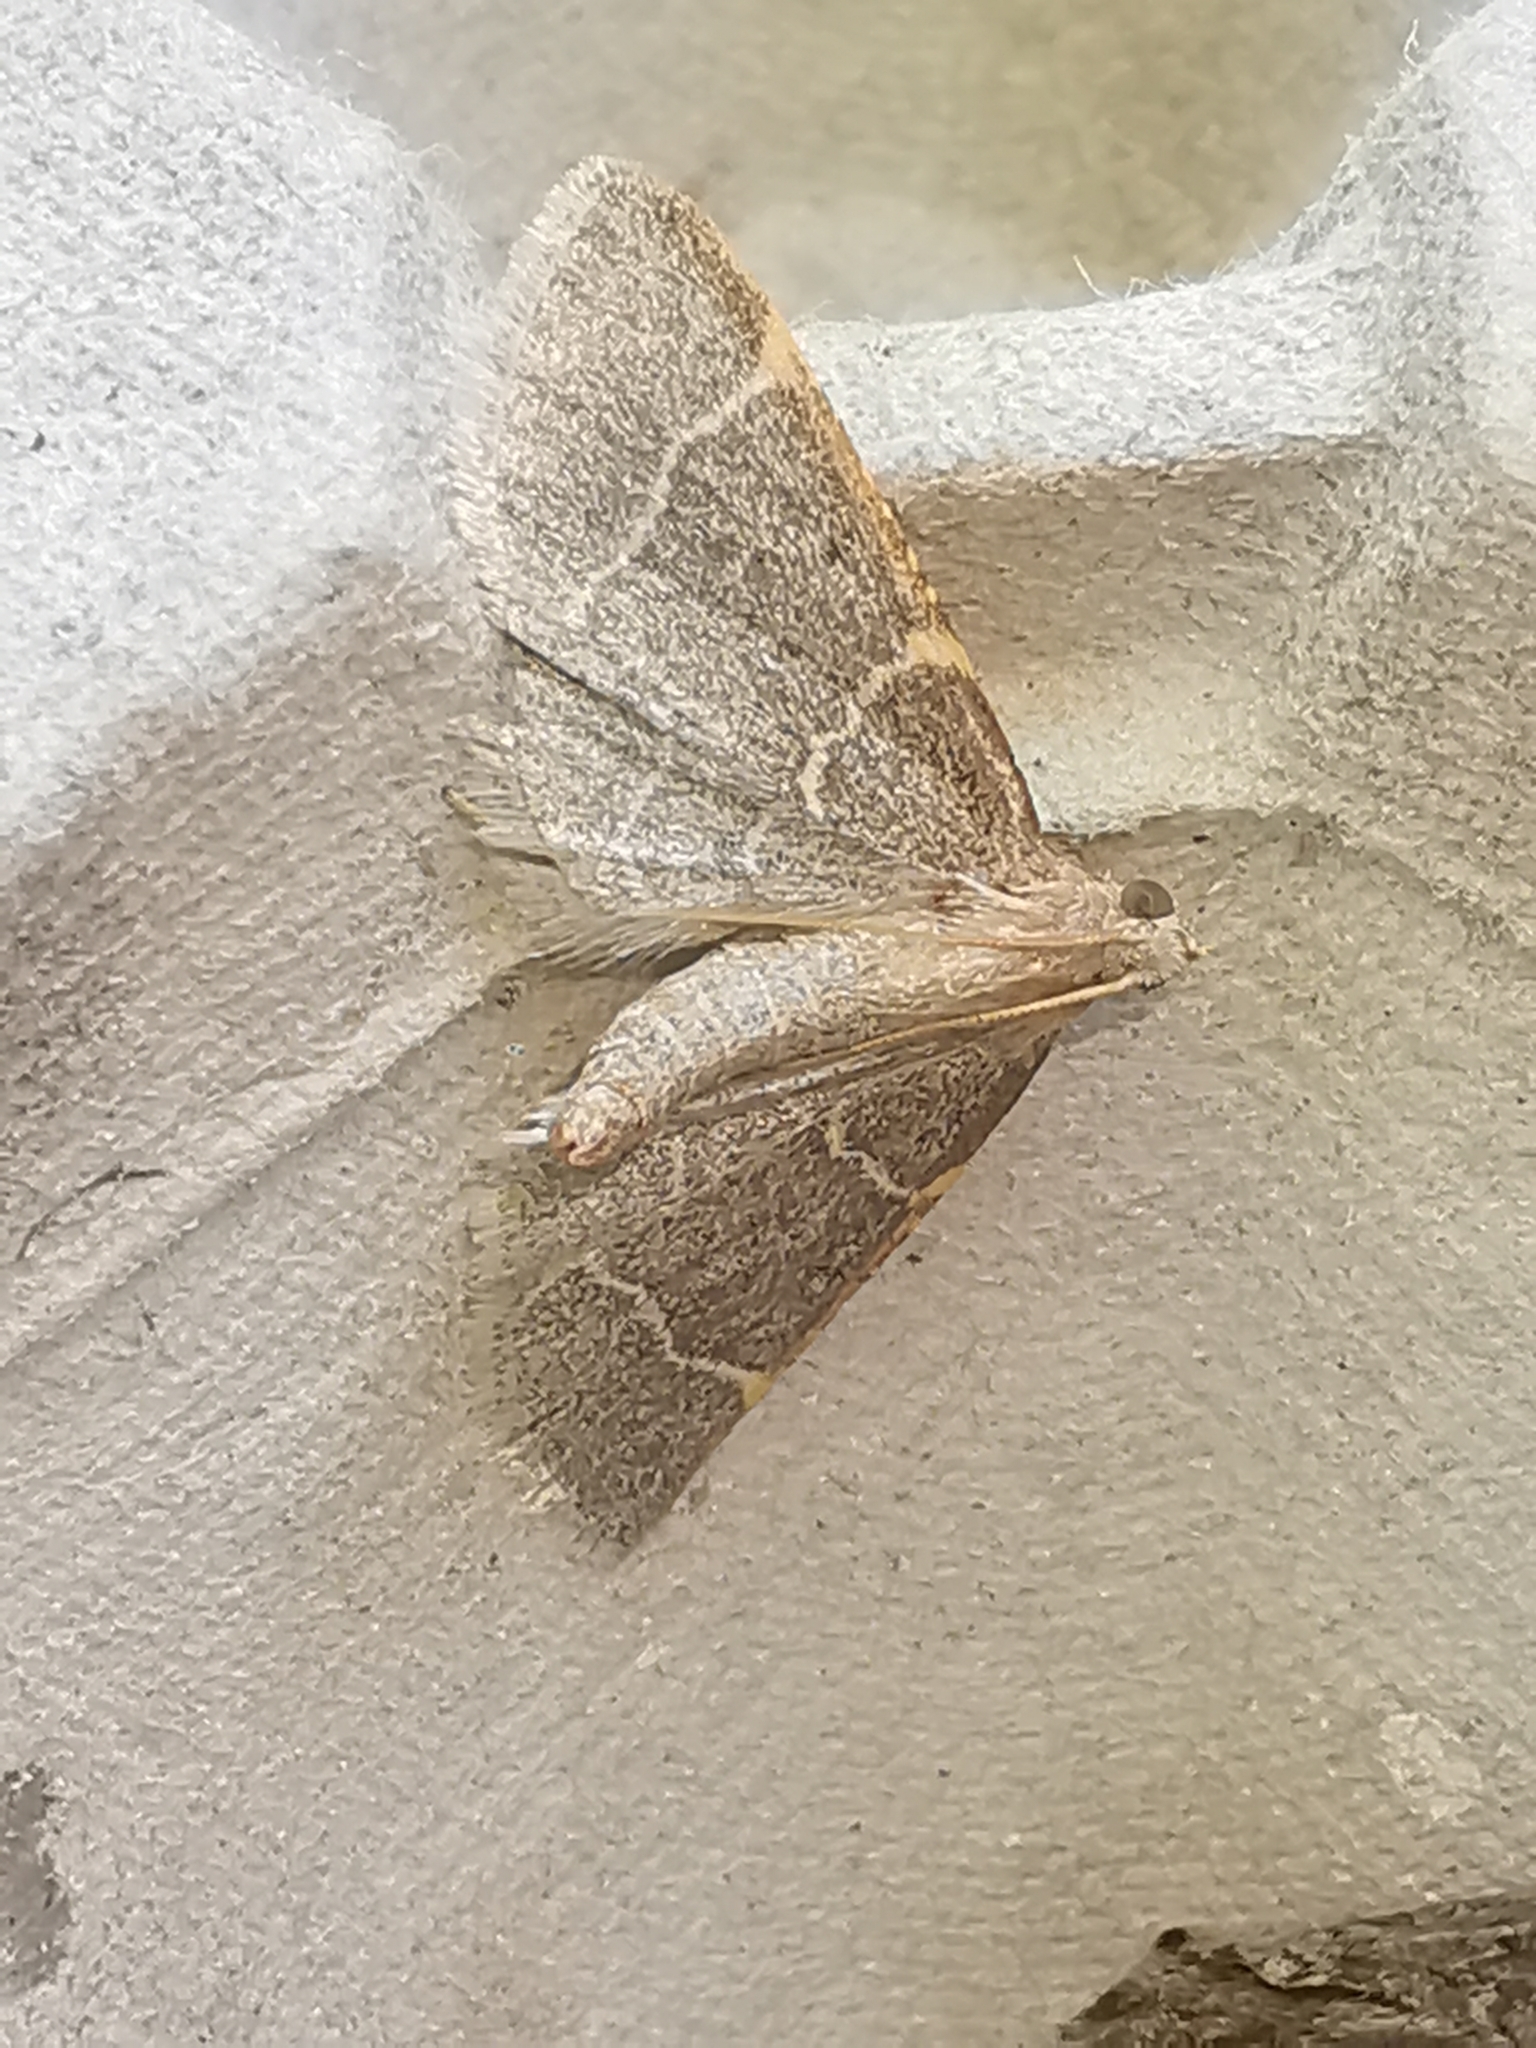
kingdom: Animalia
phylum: Arthropoda
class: Insecta
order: Lepidoptera
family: Pyralidae
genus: Hypsopygia
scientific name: Hypsopygia glaucinalis
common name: Double-striped tabby
